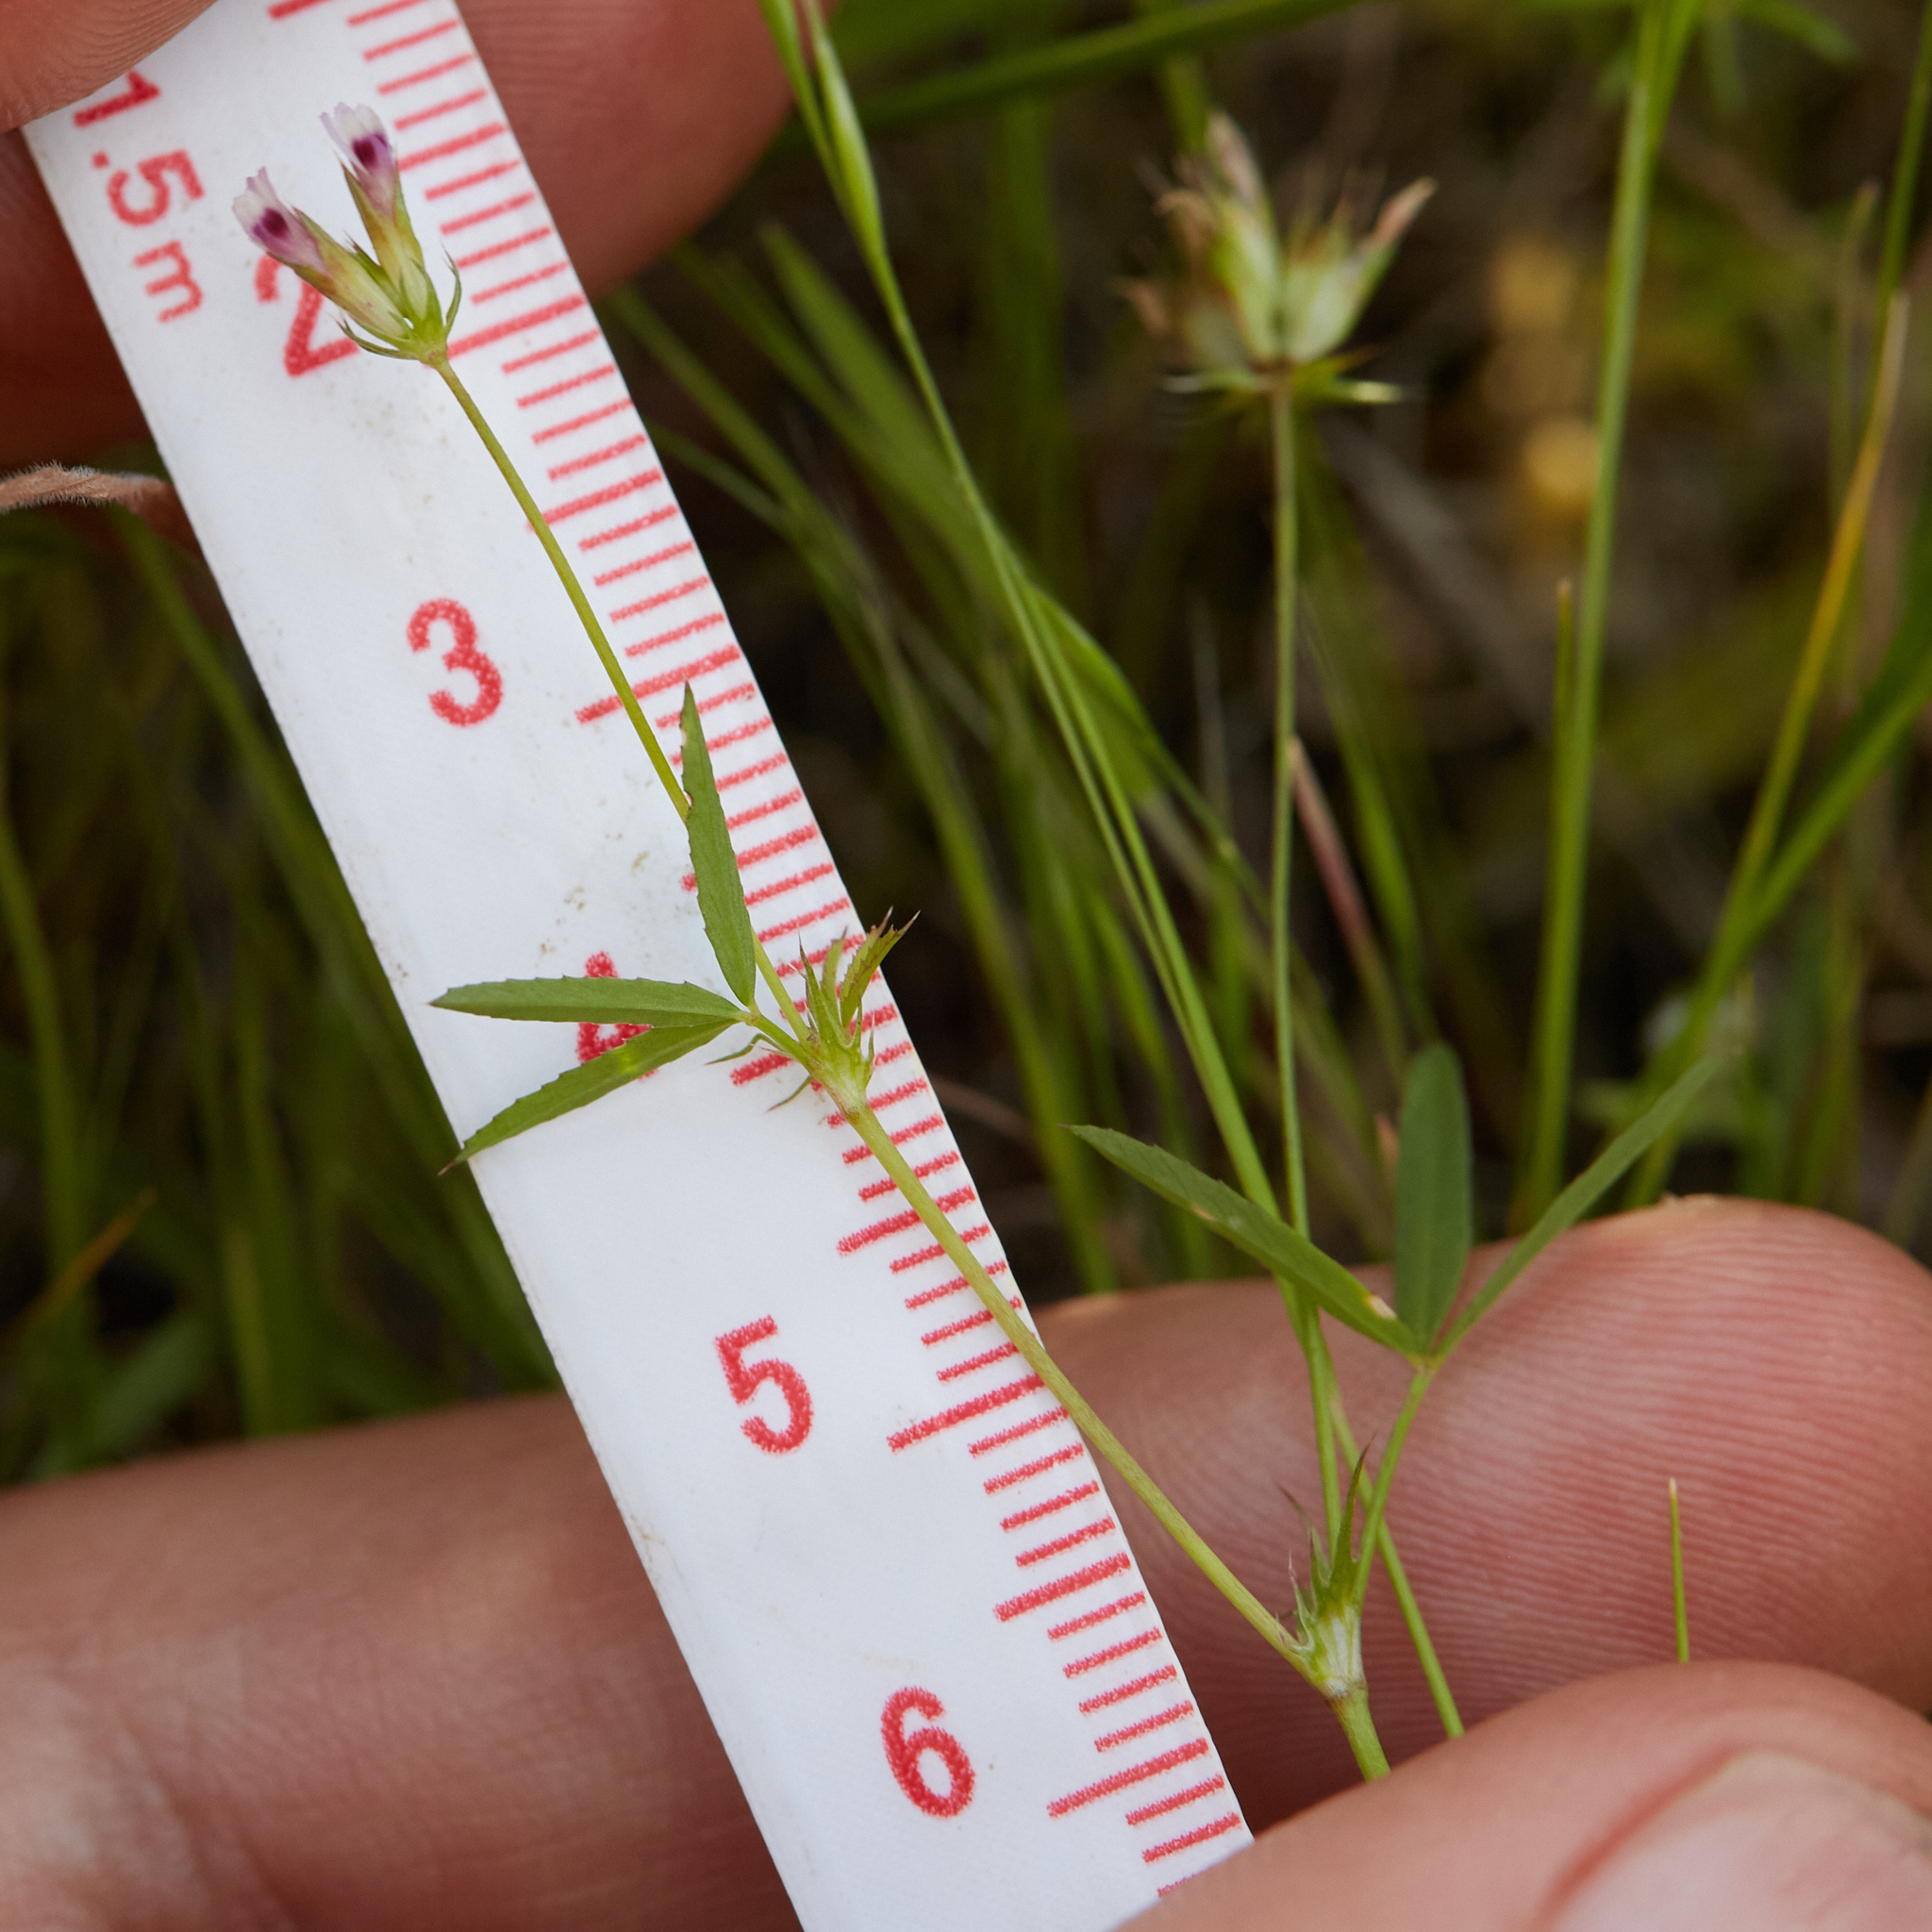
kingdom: Plantae
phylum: Tracheophyta
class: Magnoliopsida
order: Fabales
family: Fabaceae
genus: Trifolium
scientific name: Trifolium oliganthum
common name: Few-flower clover
